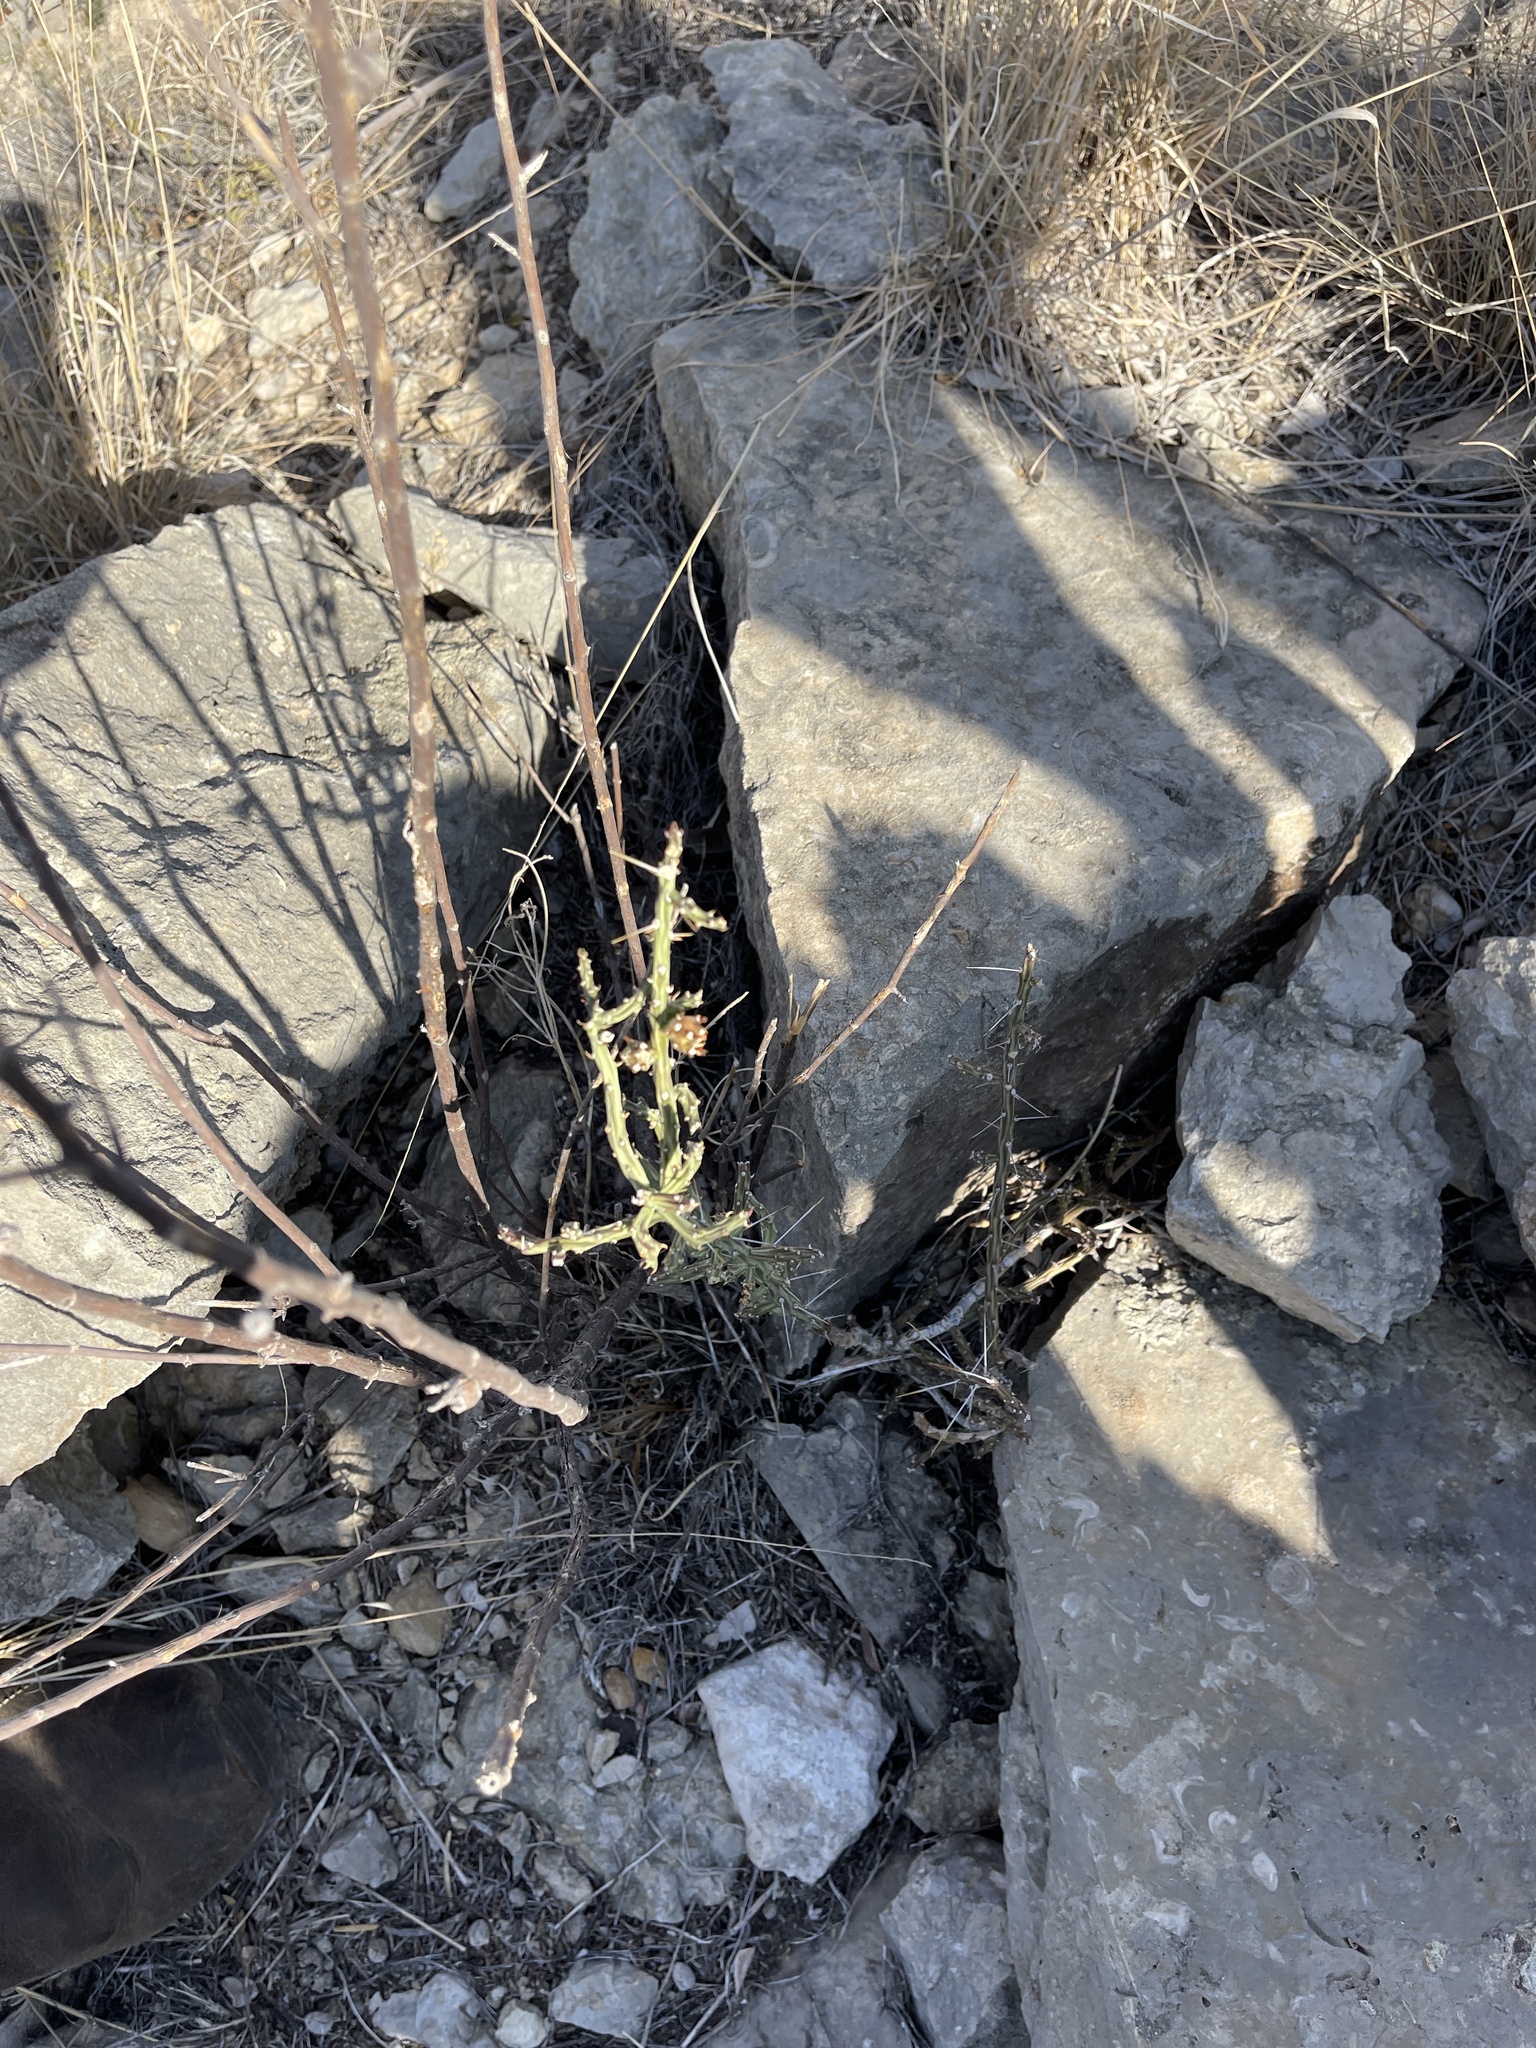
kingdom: Plantae
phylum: Tracheophyta
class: Magnoliopsida
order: Caryophyllales
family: Cactaceae
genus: Cylindropuntia
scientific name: Cylindropuntia leptocaulis
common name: Christmas cactus
